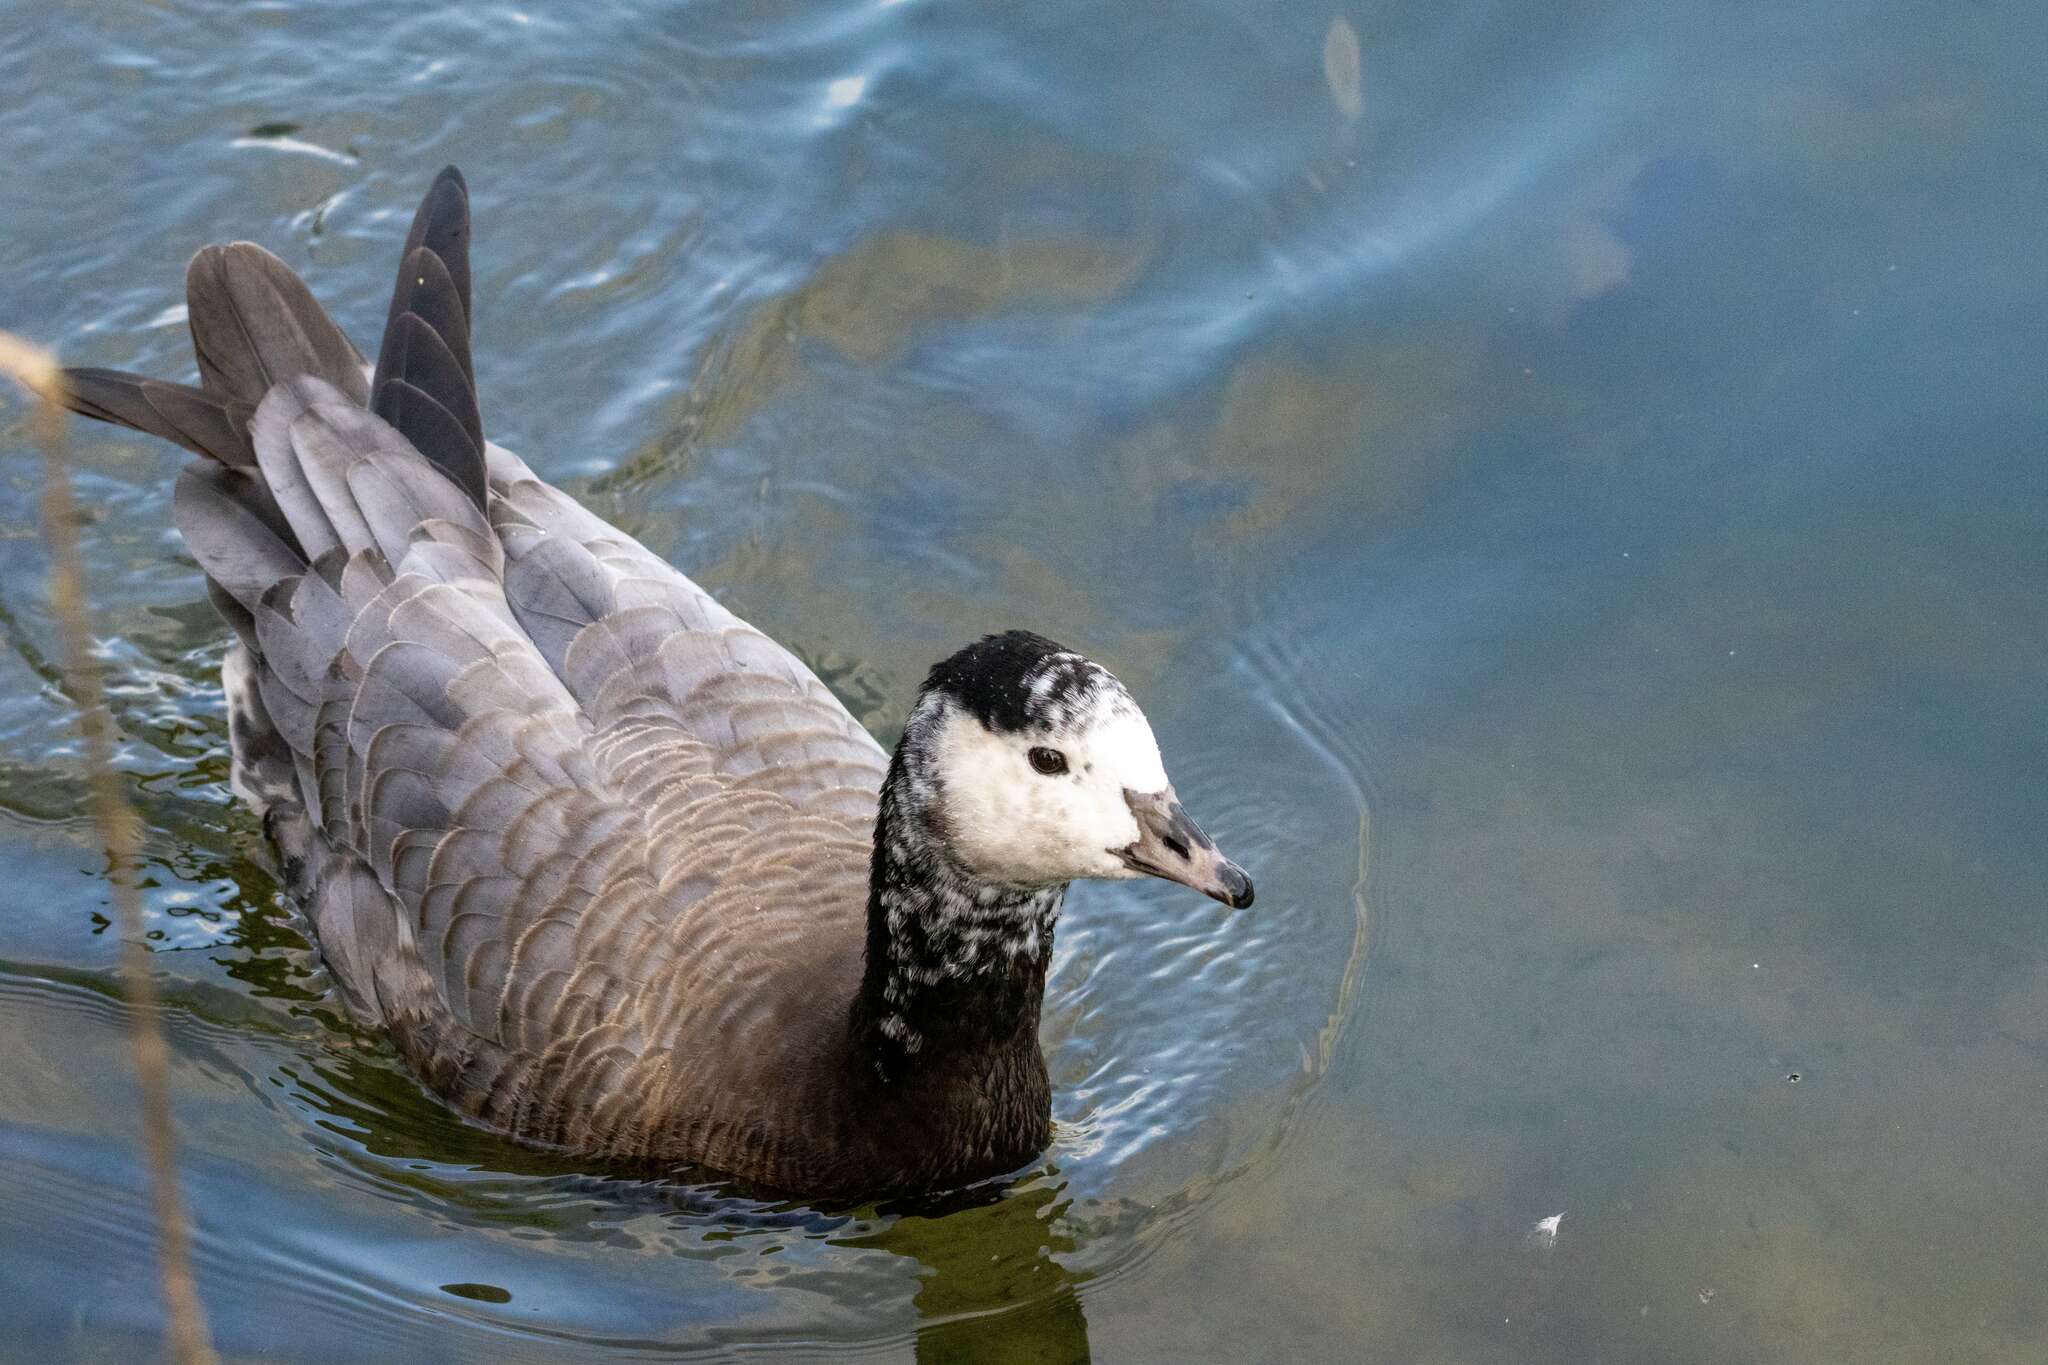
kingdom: Animalia
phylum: Chordata
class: Aves
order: Anseriformes
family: Anatidae
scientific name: Anatidae
